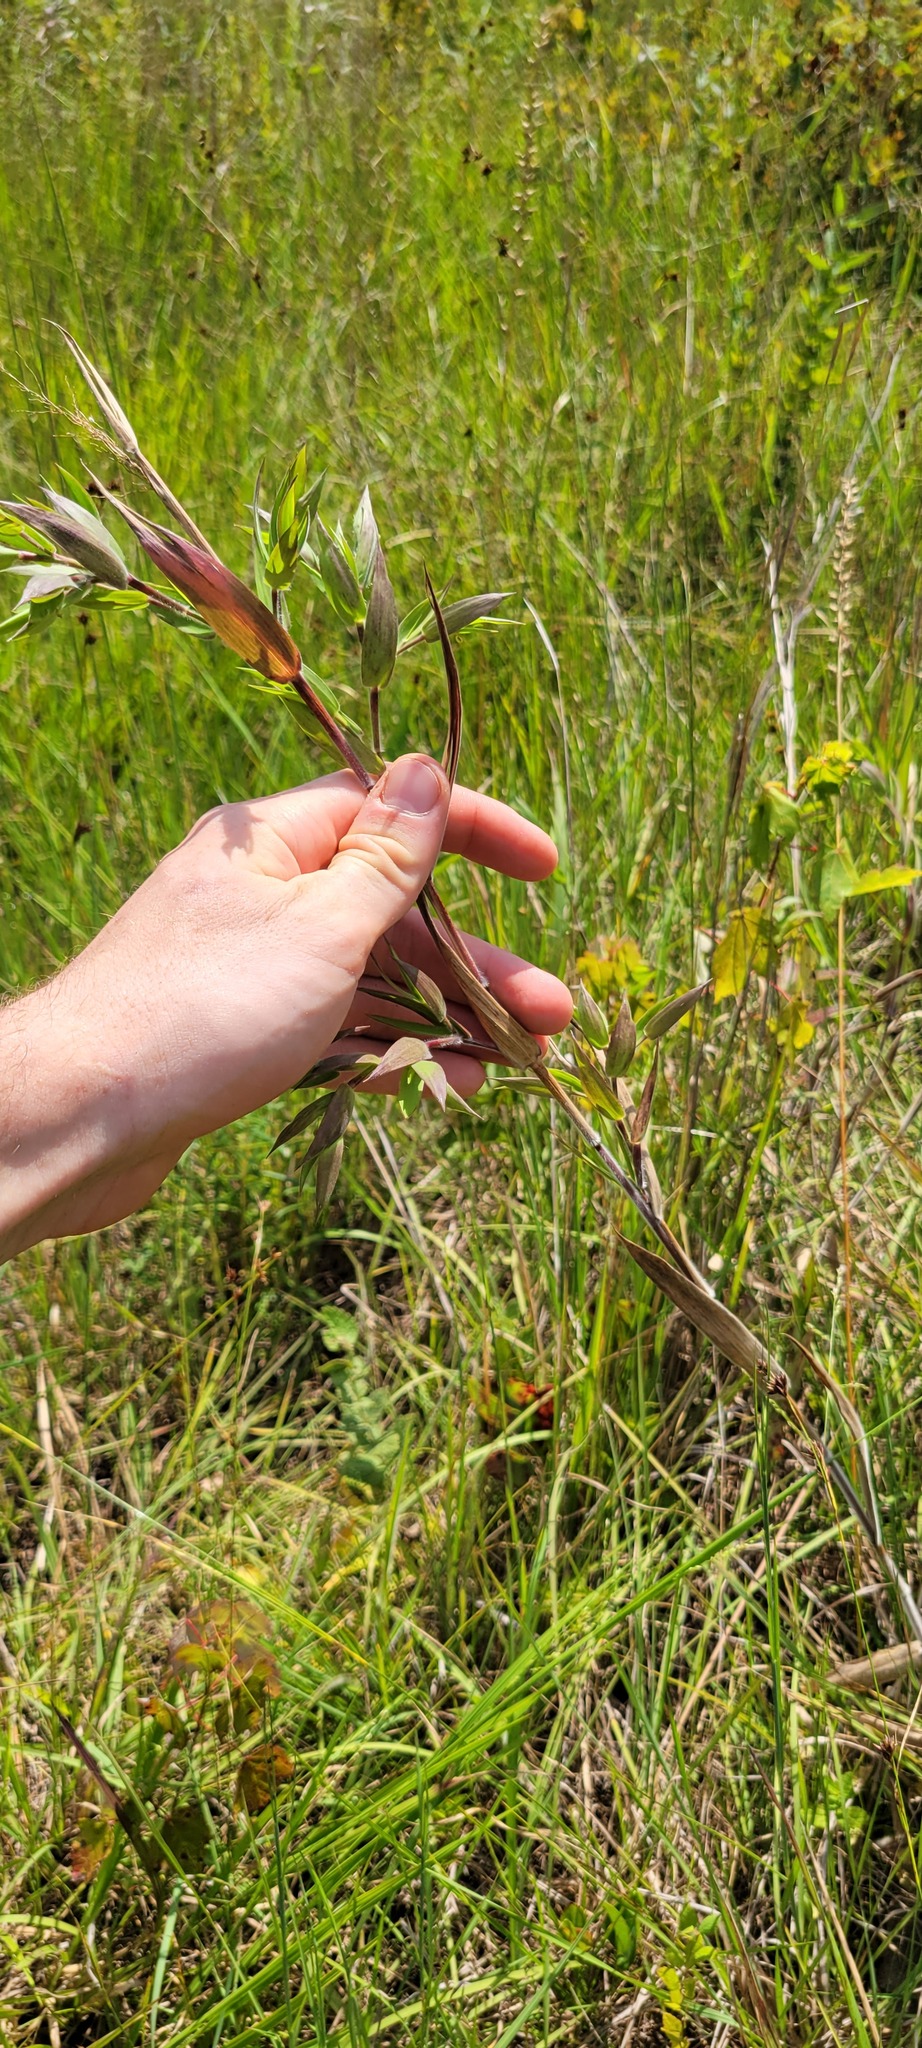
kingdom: Plantae
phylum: Tracheophyta
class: Liliopsida
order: Poales
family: Poaceae
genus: Dichanthelium
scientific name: Dichanthelium scoparium
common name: Velvety panic grass
